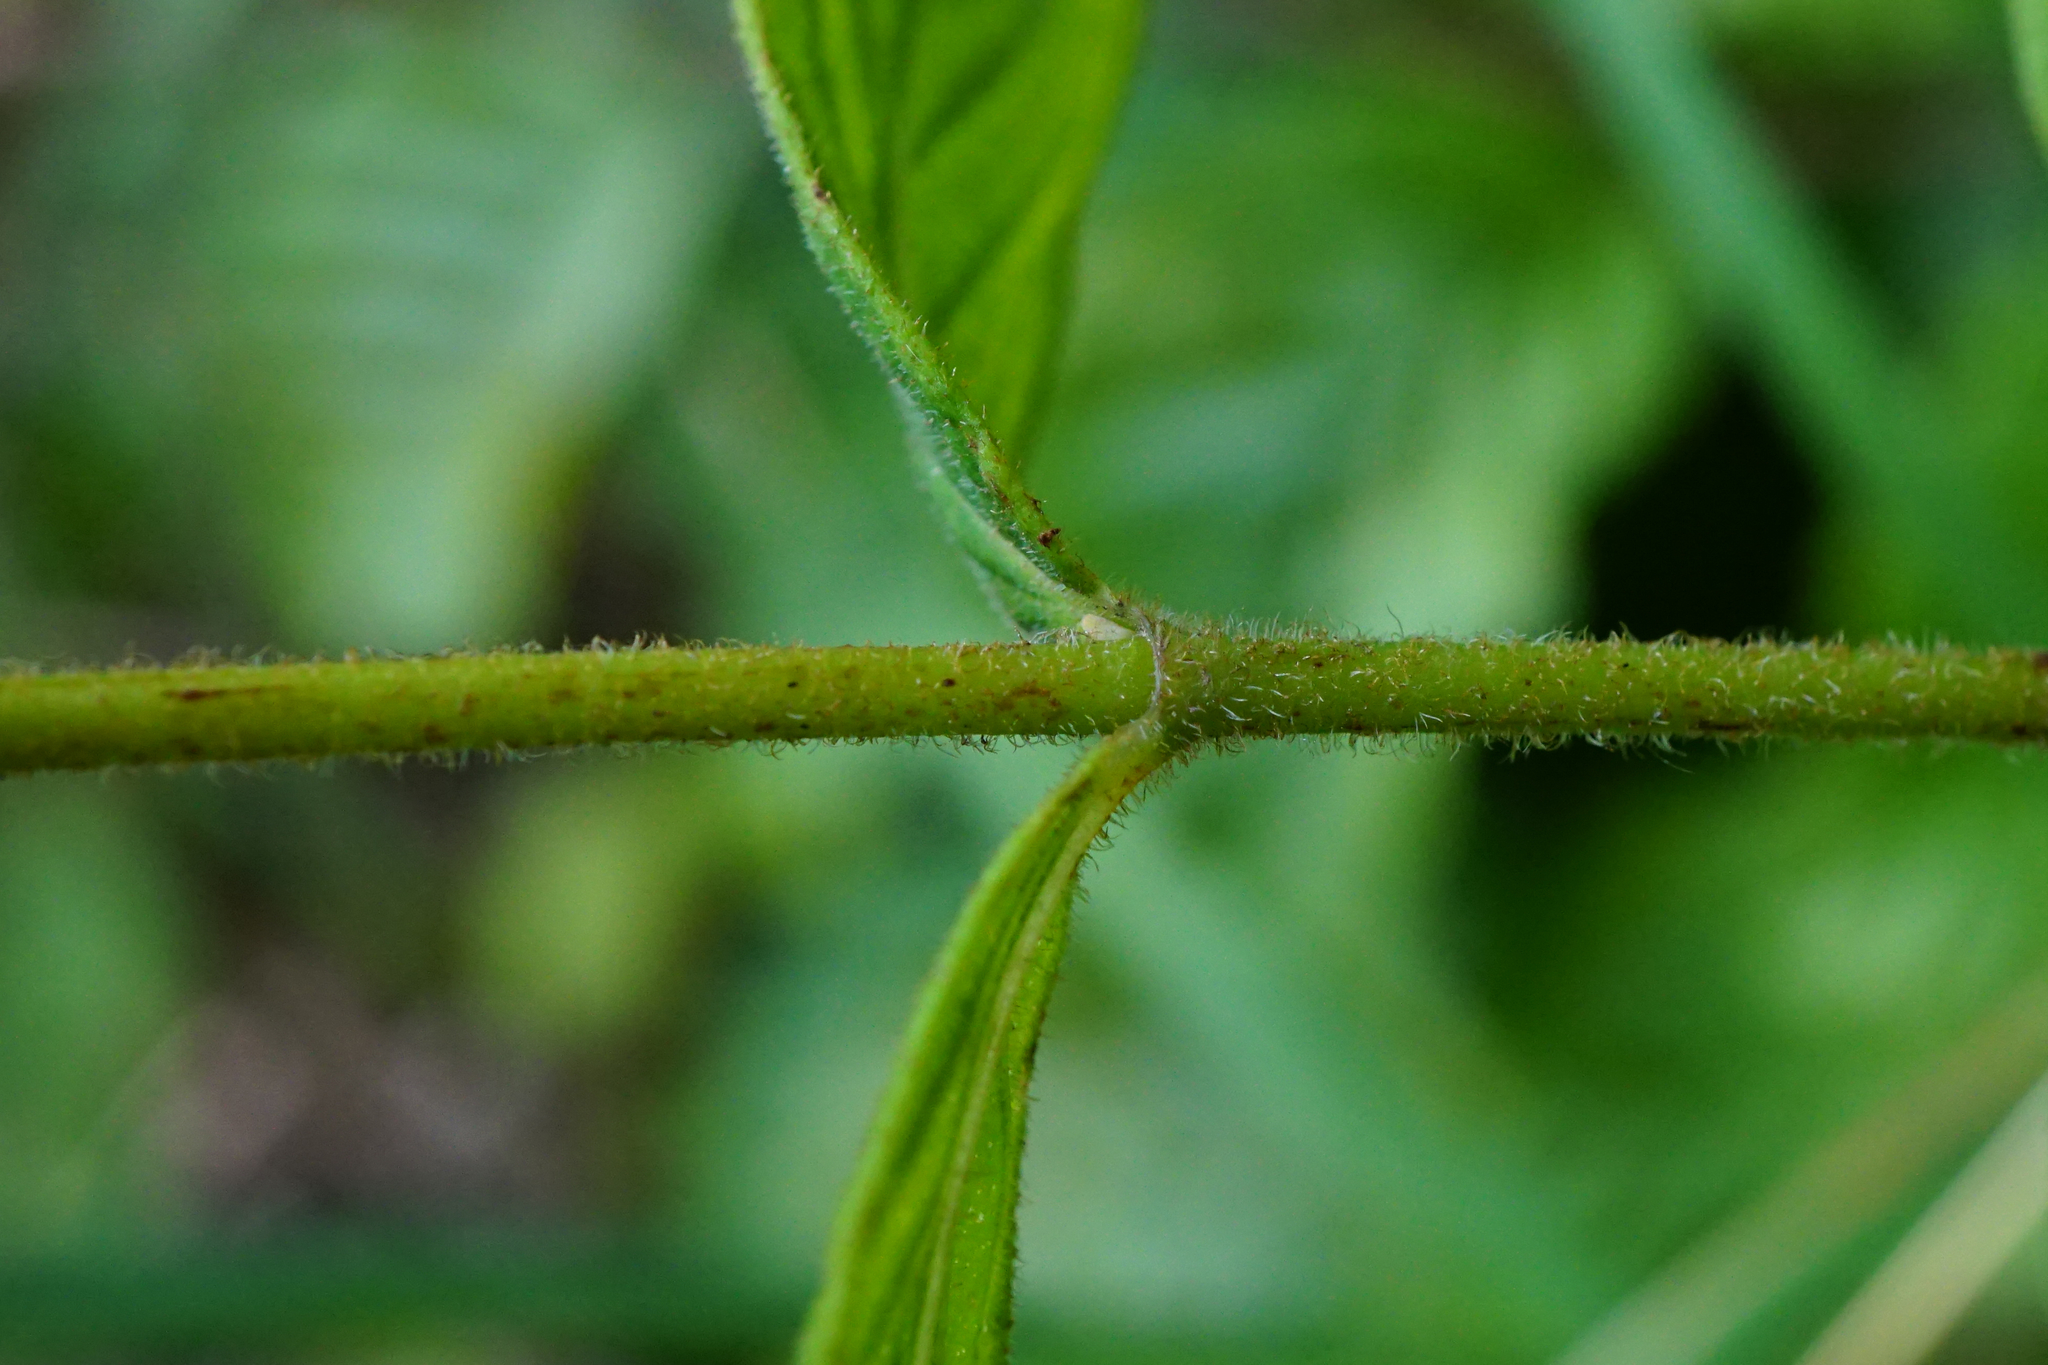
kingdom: Plantae
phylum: Tracheophyta
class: Magnoliopsida
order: Malpighiales
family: Hypericaceae
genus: Hypericum
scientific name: Hypericum hirsutum
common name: Hairy st. john's-wort
